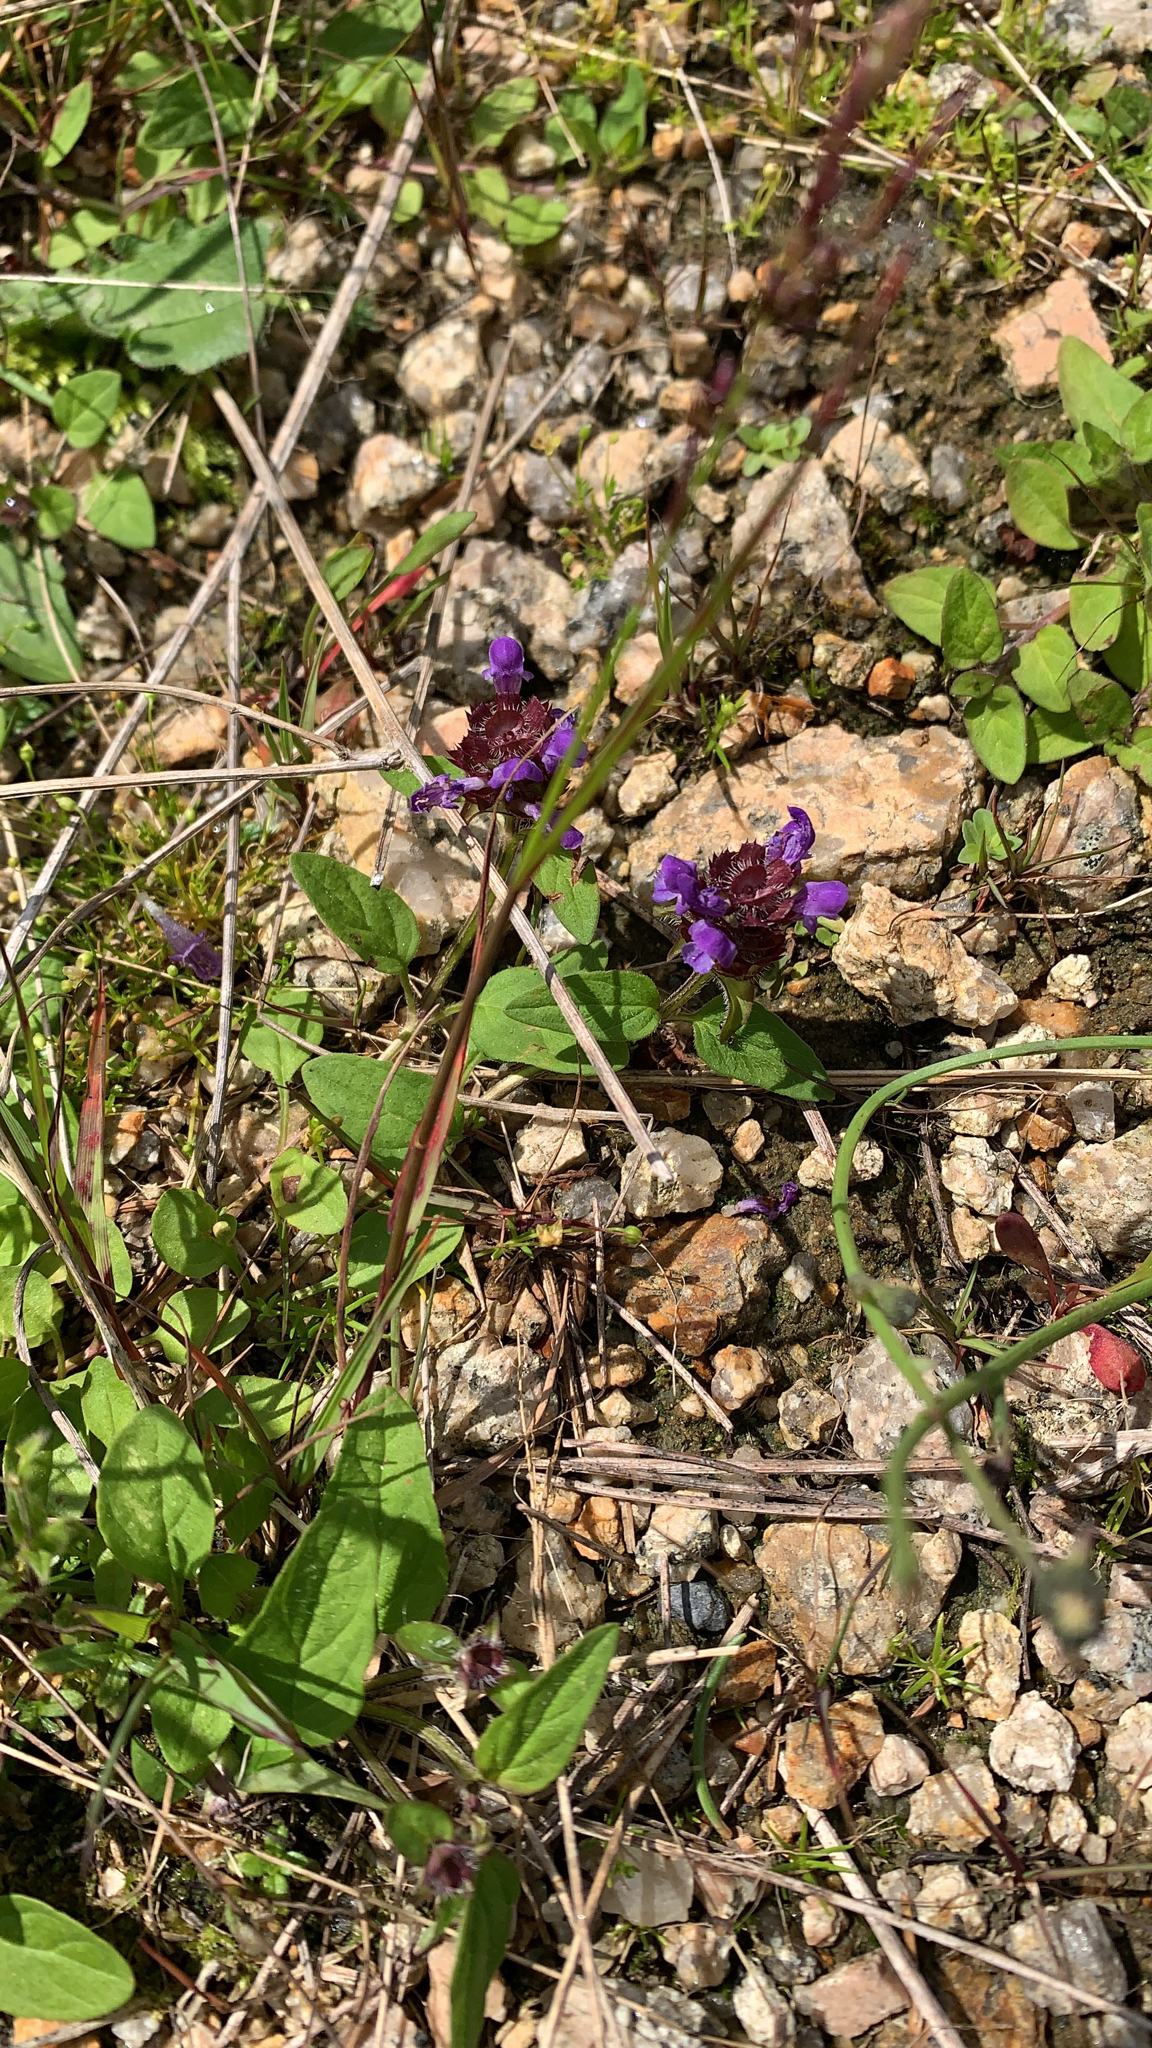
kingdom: Plantae
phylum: Tracheophyta
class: Magnoliopsida
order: Lamiales
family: Lamiaceae
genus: Prunella
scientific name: Prunella vulgaris
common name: Heal-all
